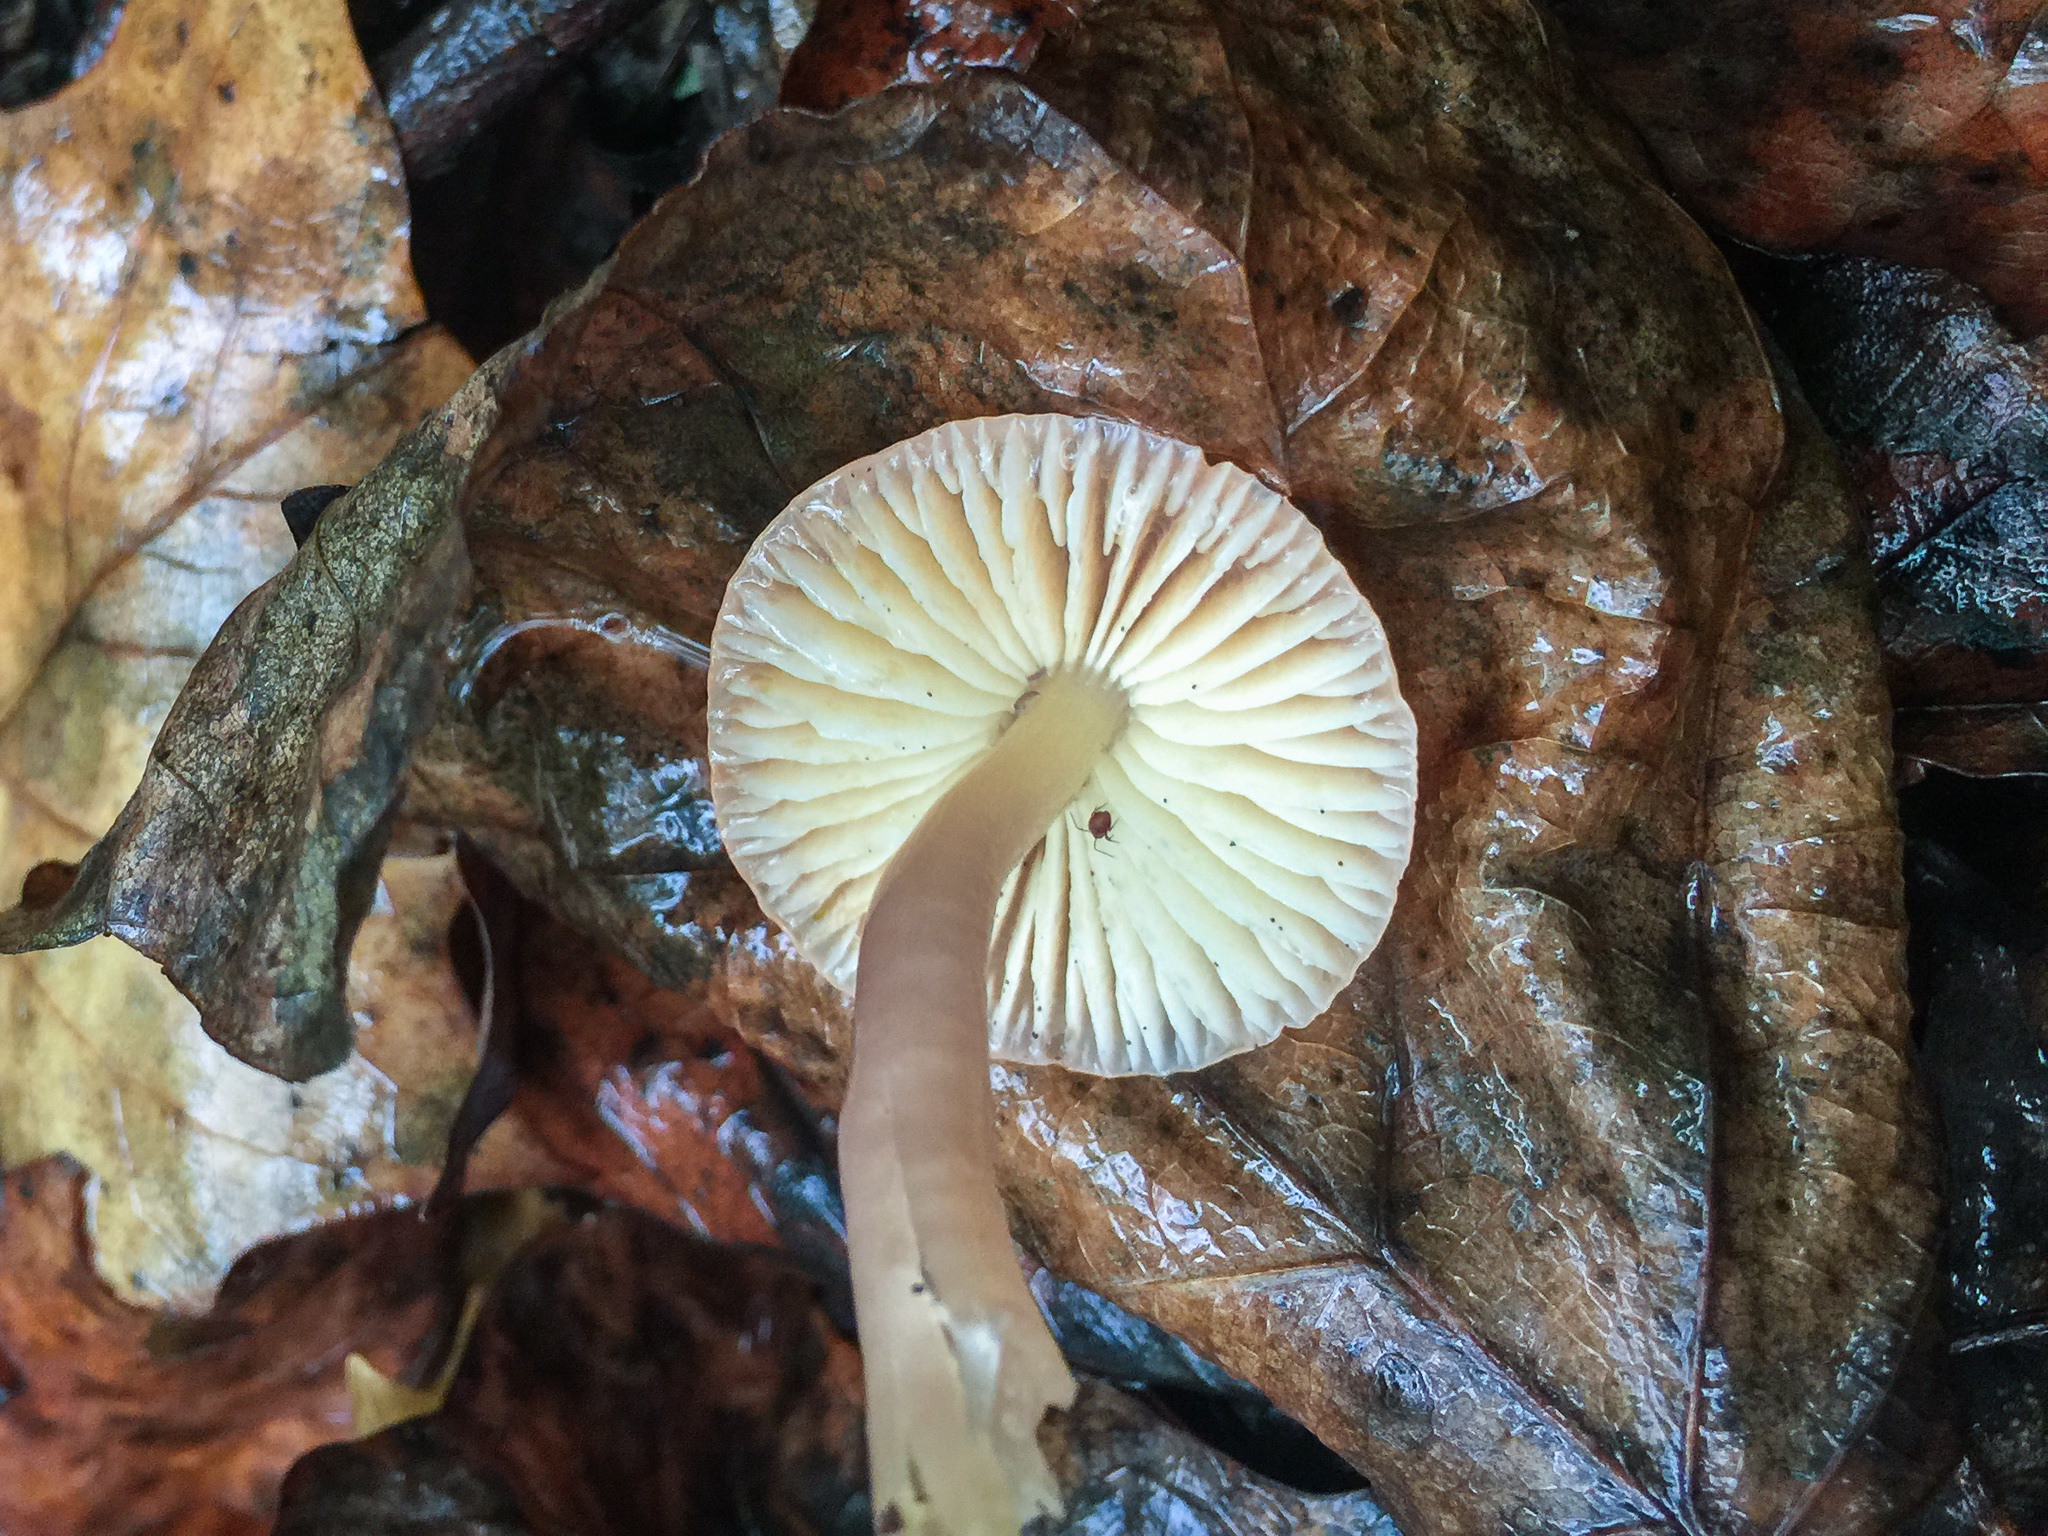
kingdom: Fungi
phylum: Basidiomycota
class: Agaricomycetes
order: Agaricales
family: Hygrophoraceae
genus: Cuphophyllus
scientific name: Cuphophyllus pratensis
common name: Meadow waxcap
